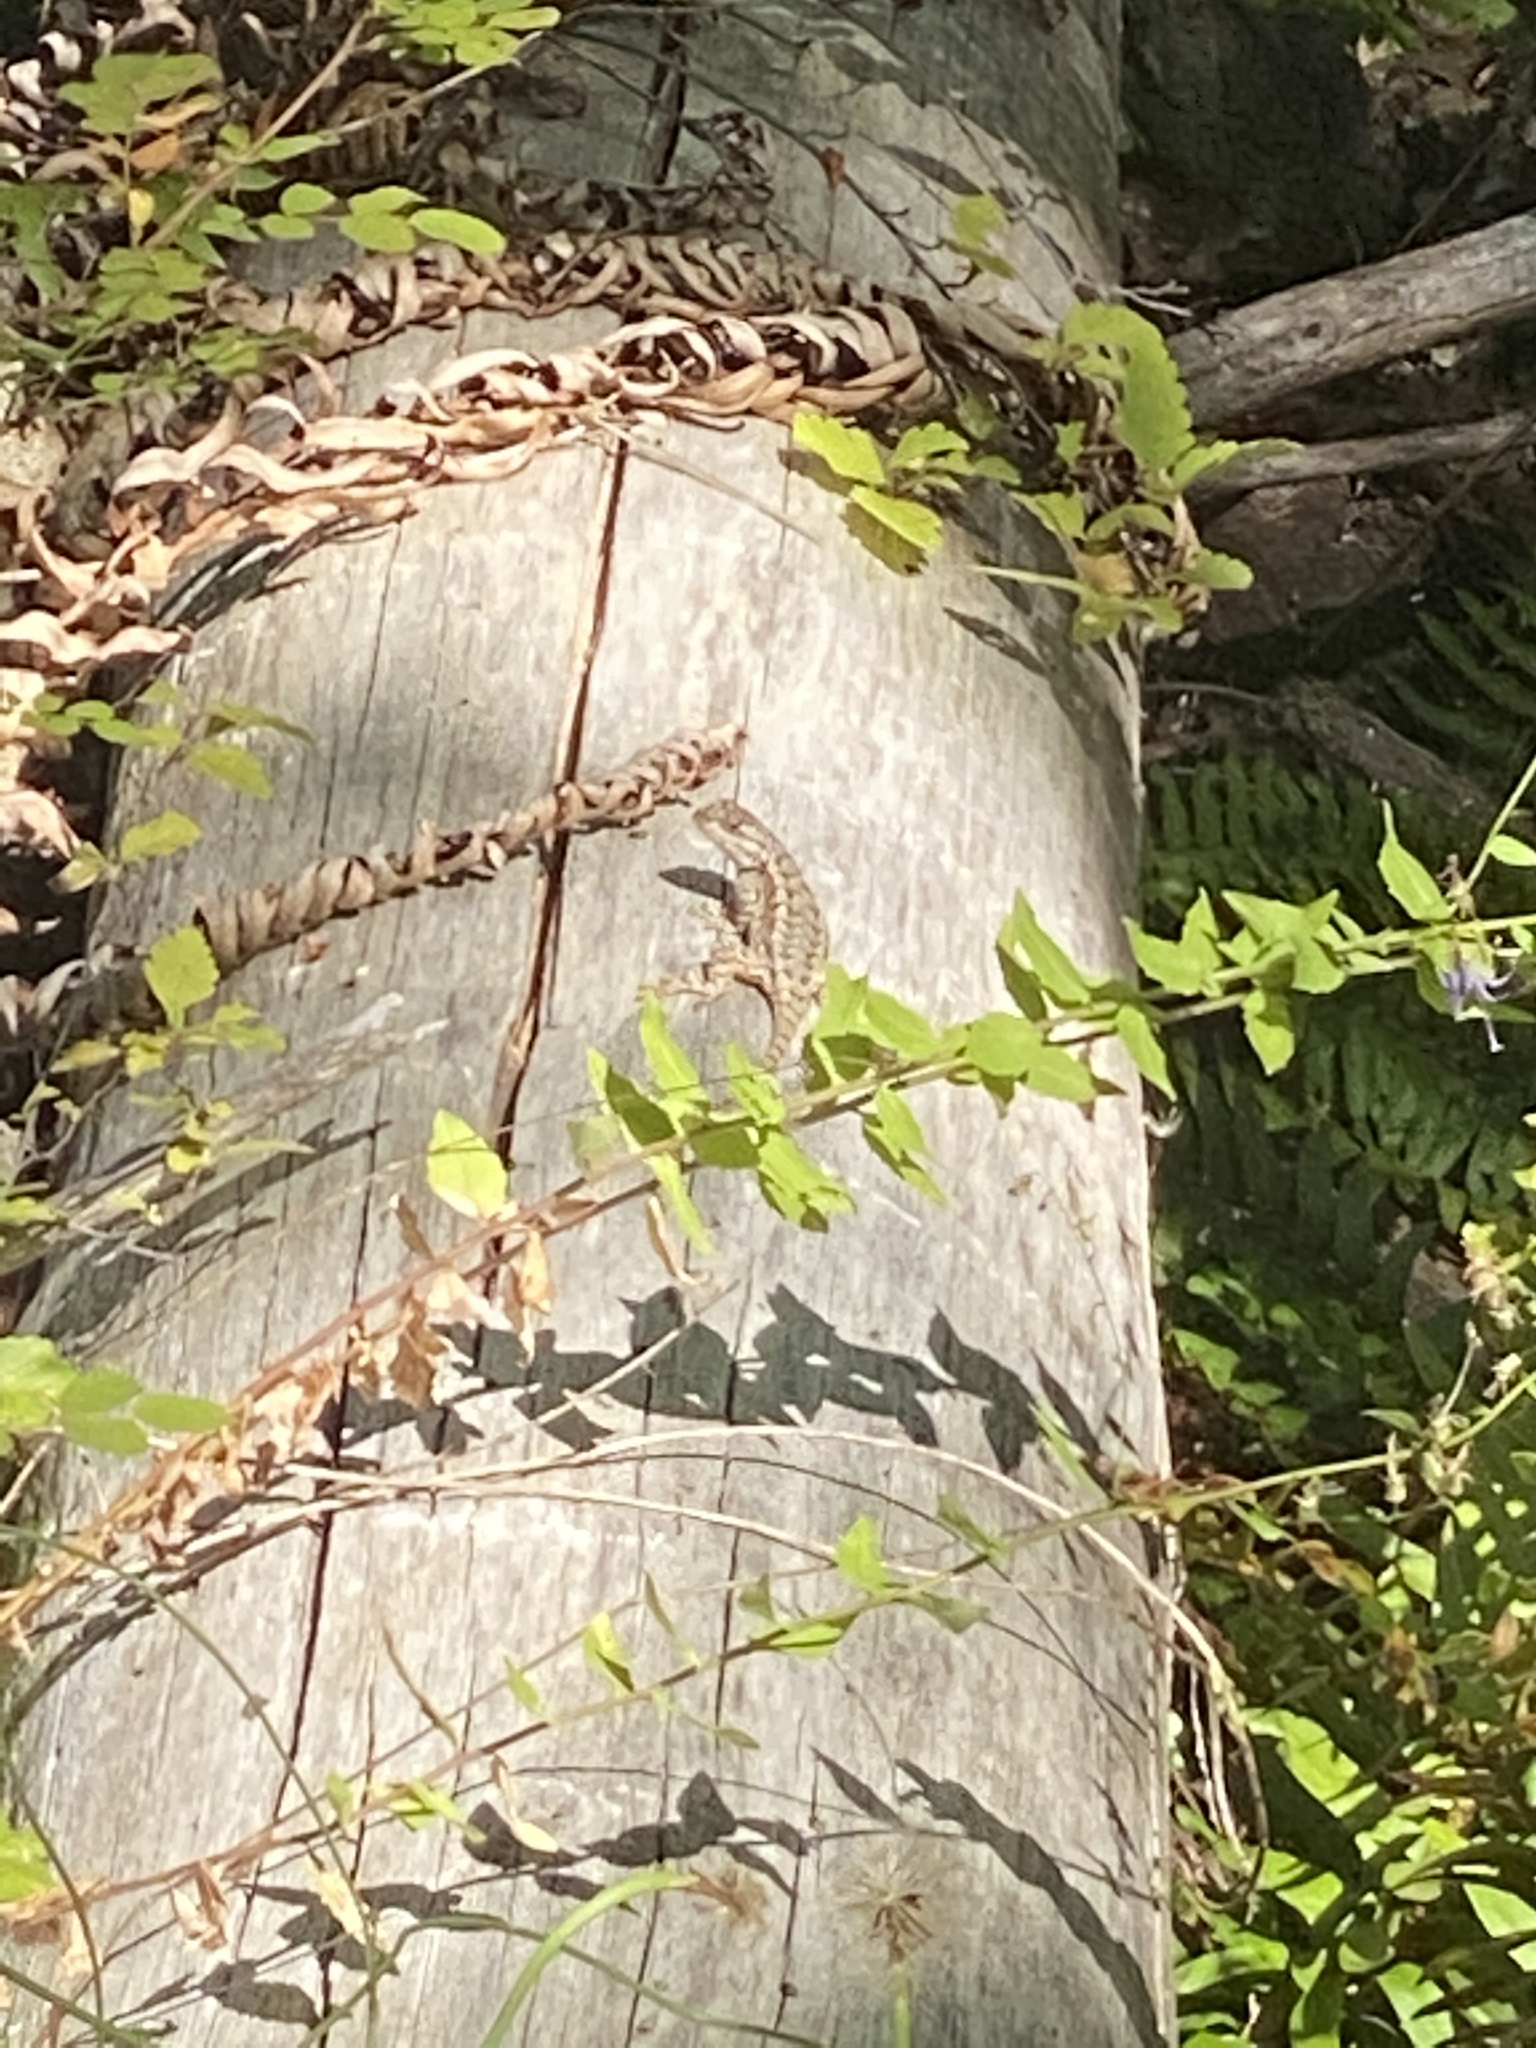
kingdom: Animalia
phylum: Chordata
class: Squamata
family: Phrynosomatidae
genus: Sceloporus
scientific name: Sceloporus occidentalis
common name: Western fence lizard
